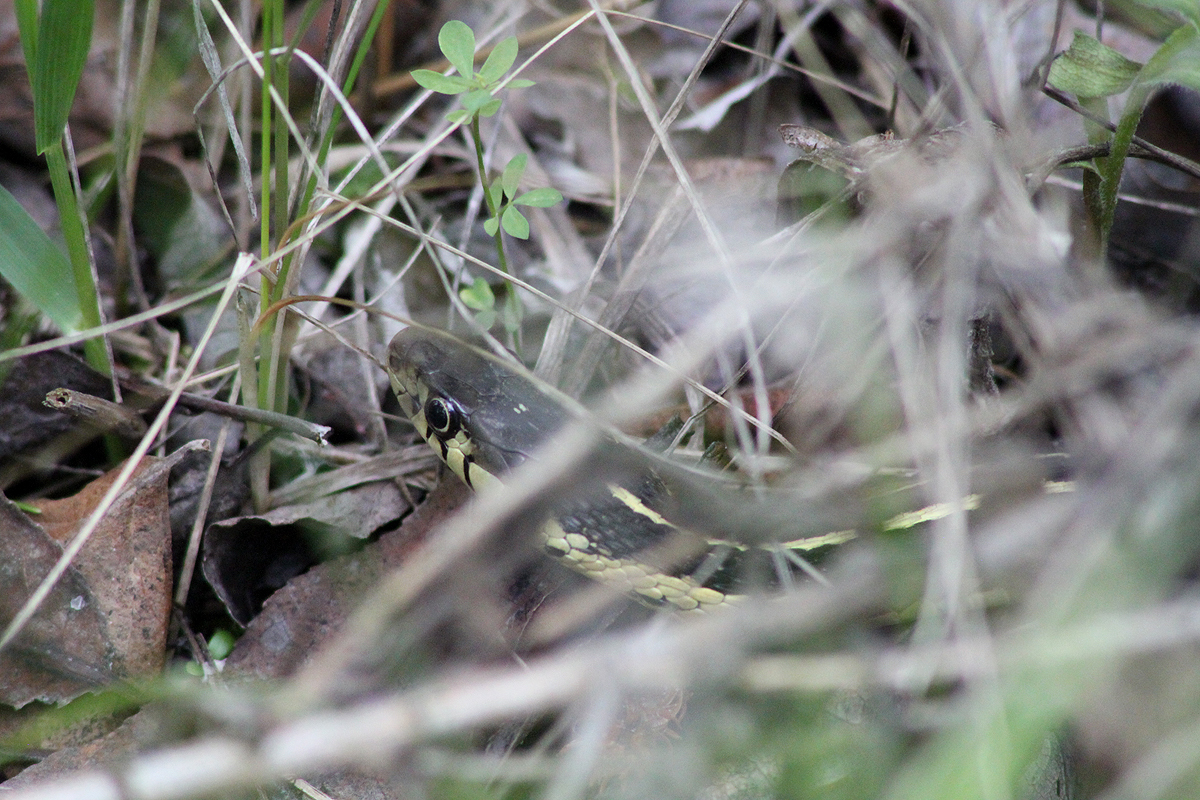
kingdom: Animalia
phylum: Chordata
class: Squamata
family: Colubridae
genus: Thamnophis
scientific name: Thamnophis sirtalis
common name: Common garter snake
